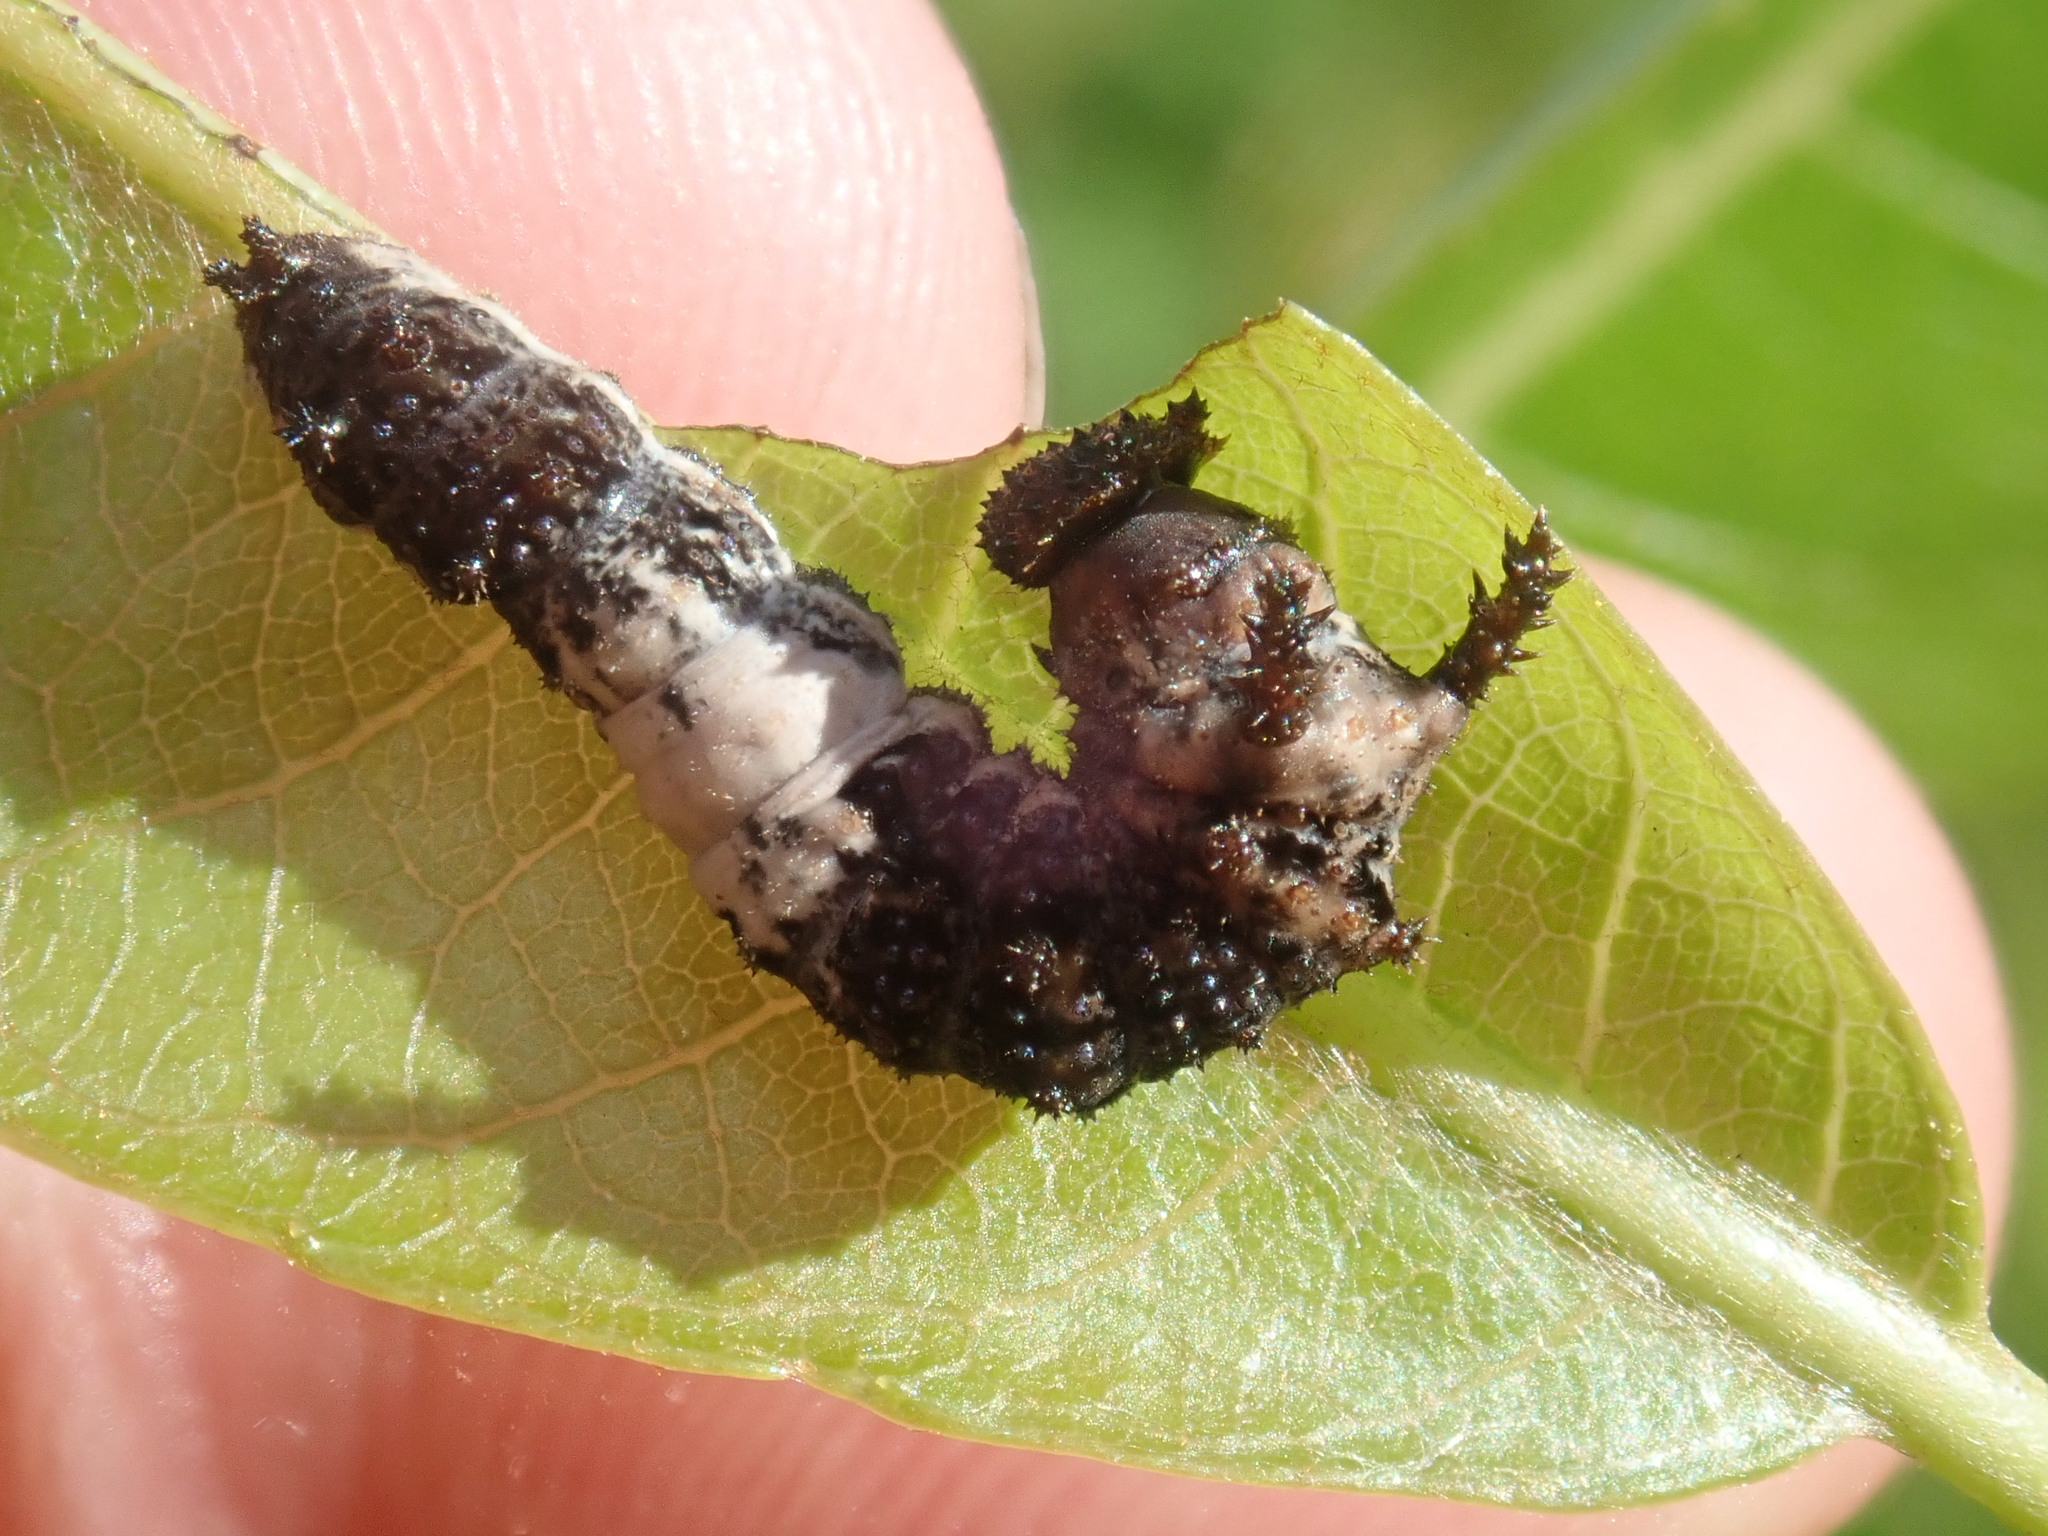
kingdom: Animalia
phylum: Arthropoda
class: Insecta
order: Lepidoptera
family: Nymphalidae
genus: Limenitis
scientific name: Limenitis archippus
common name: Viceroy
